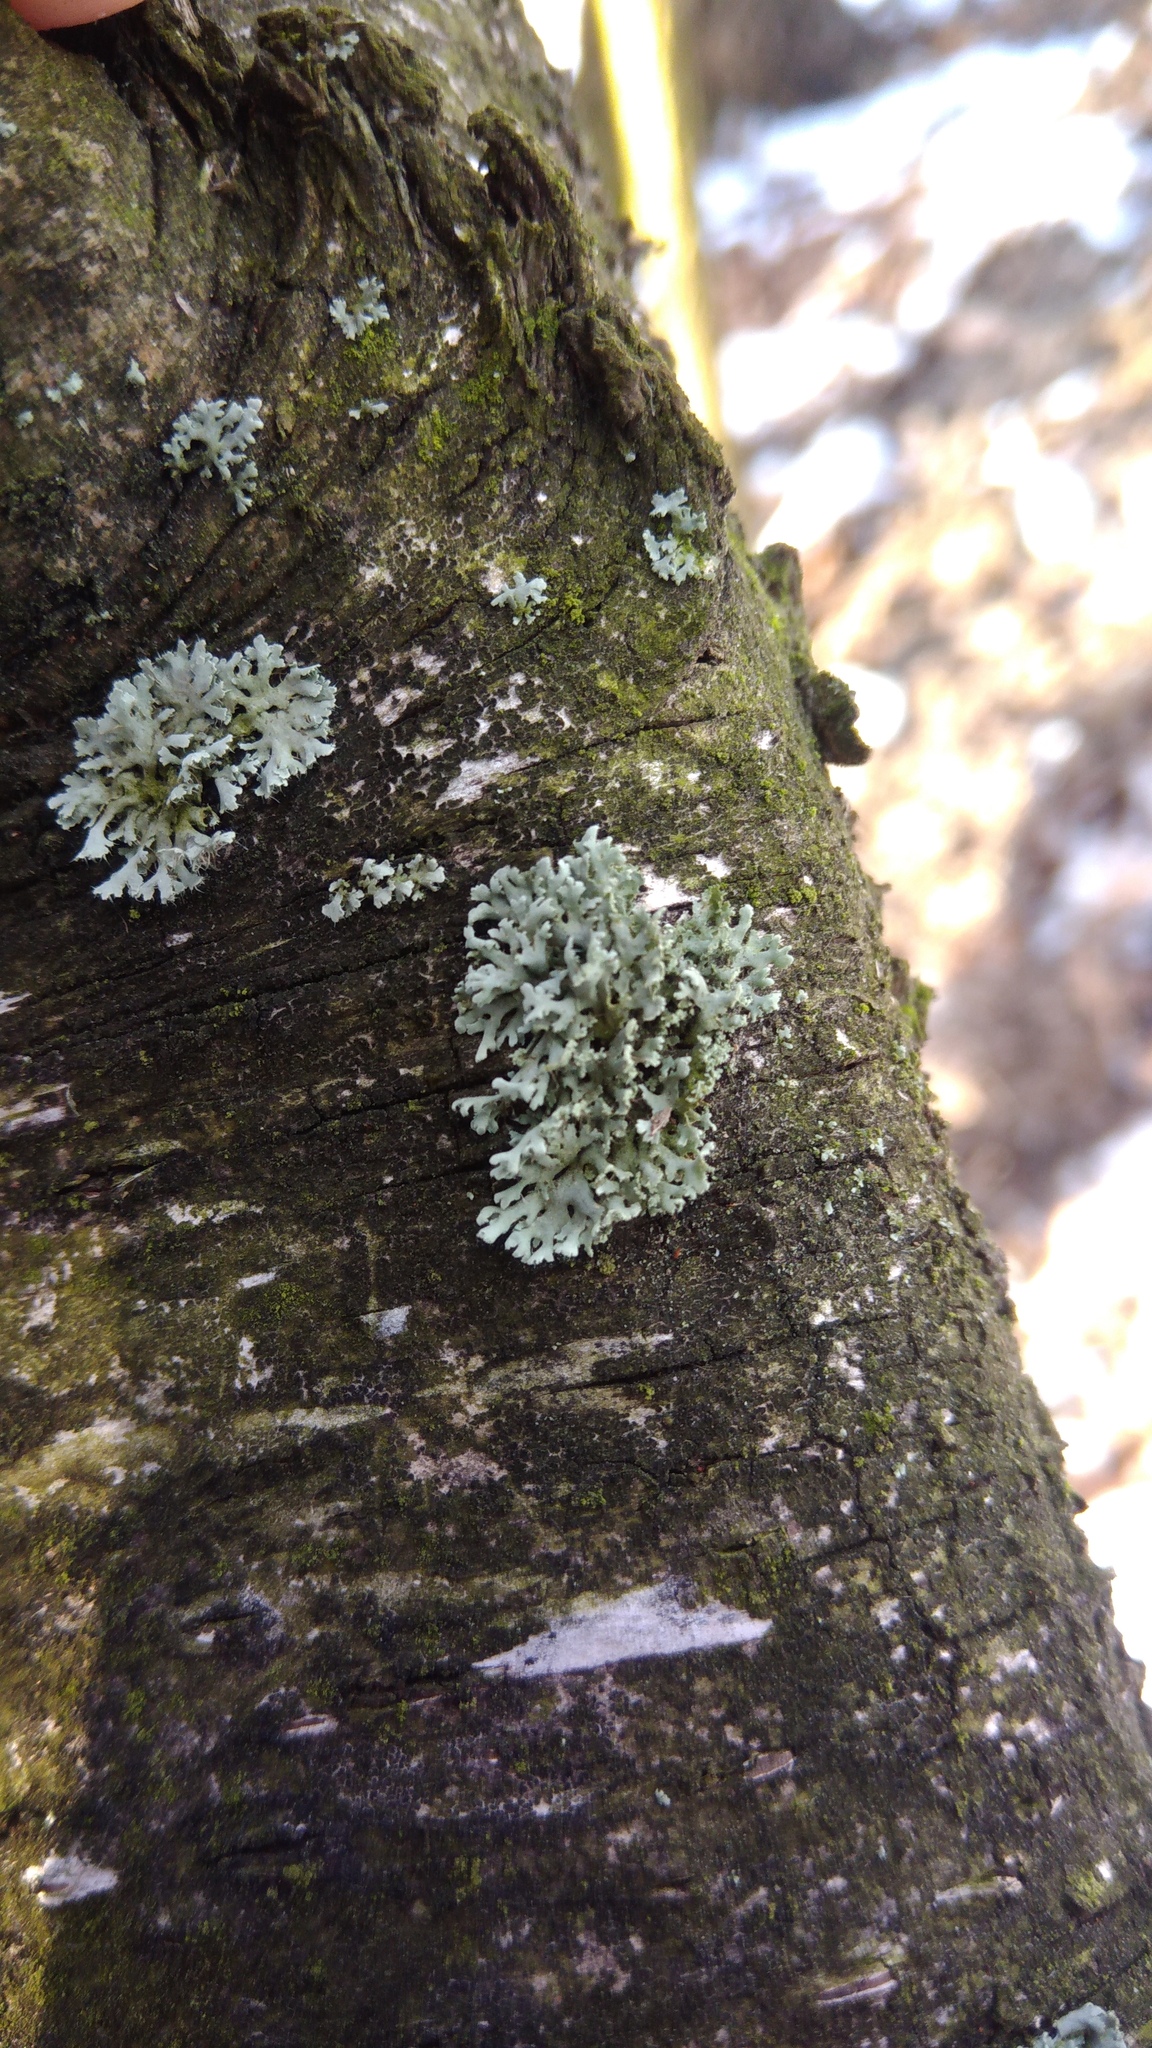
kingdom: Fungi
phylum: Ascomycota
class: Lecanoromycetes
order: Caliciales
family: Physciaceae
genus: Physcia
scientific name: Physcia tenella
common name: Fringed rosette lichen
